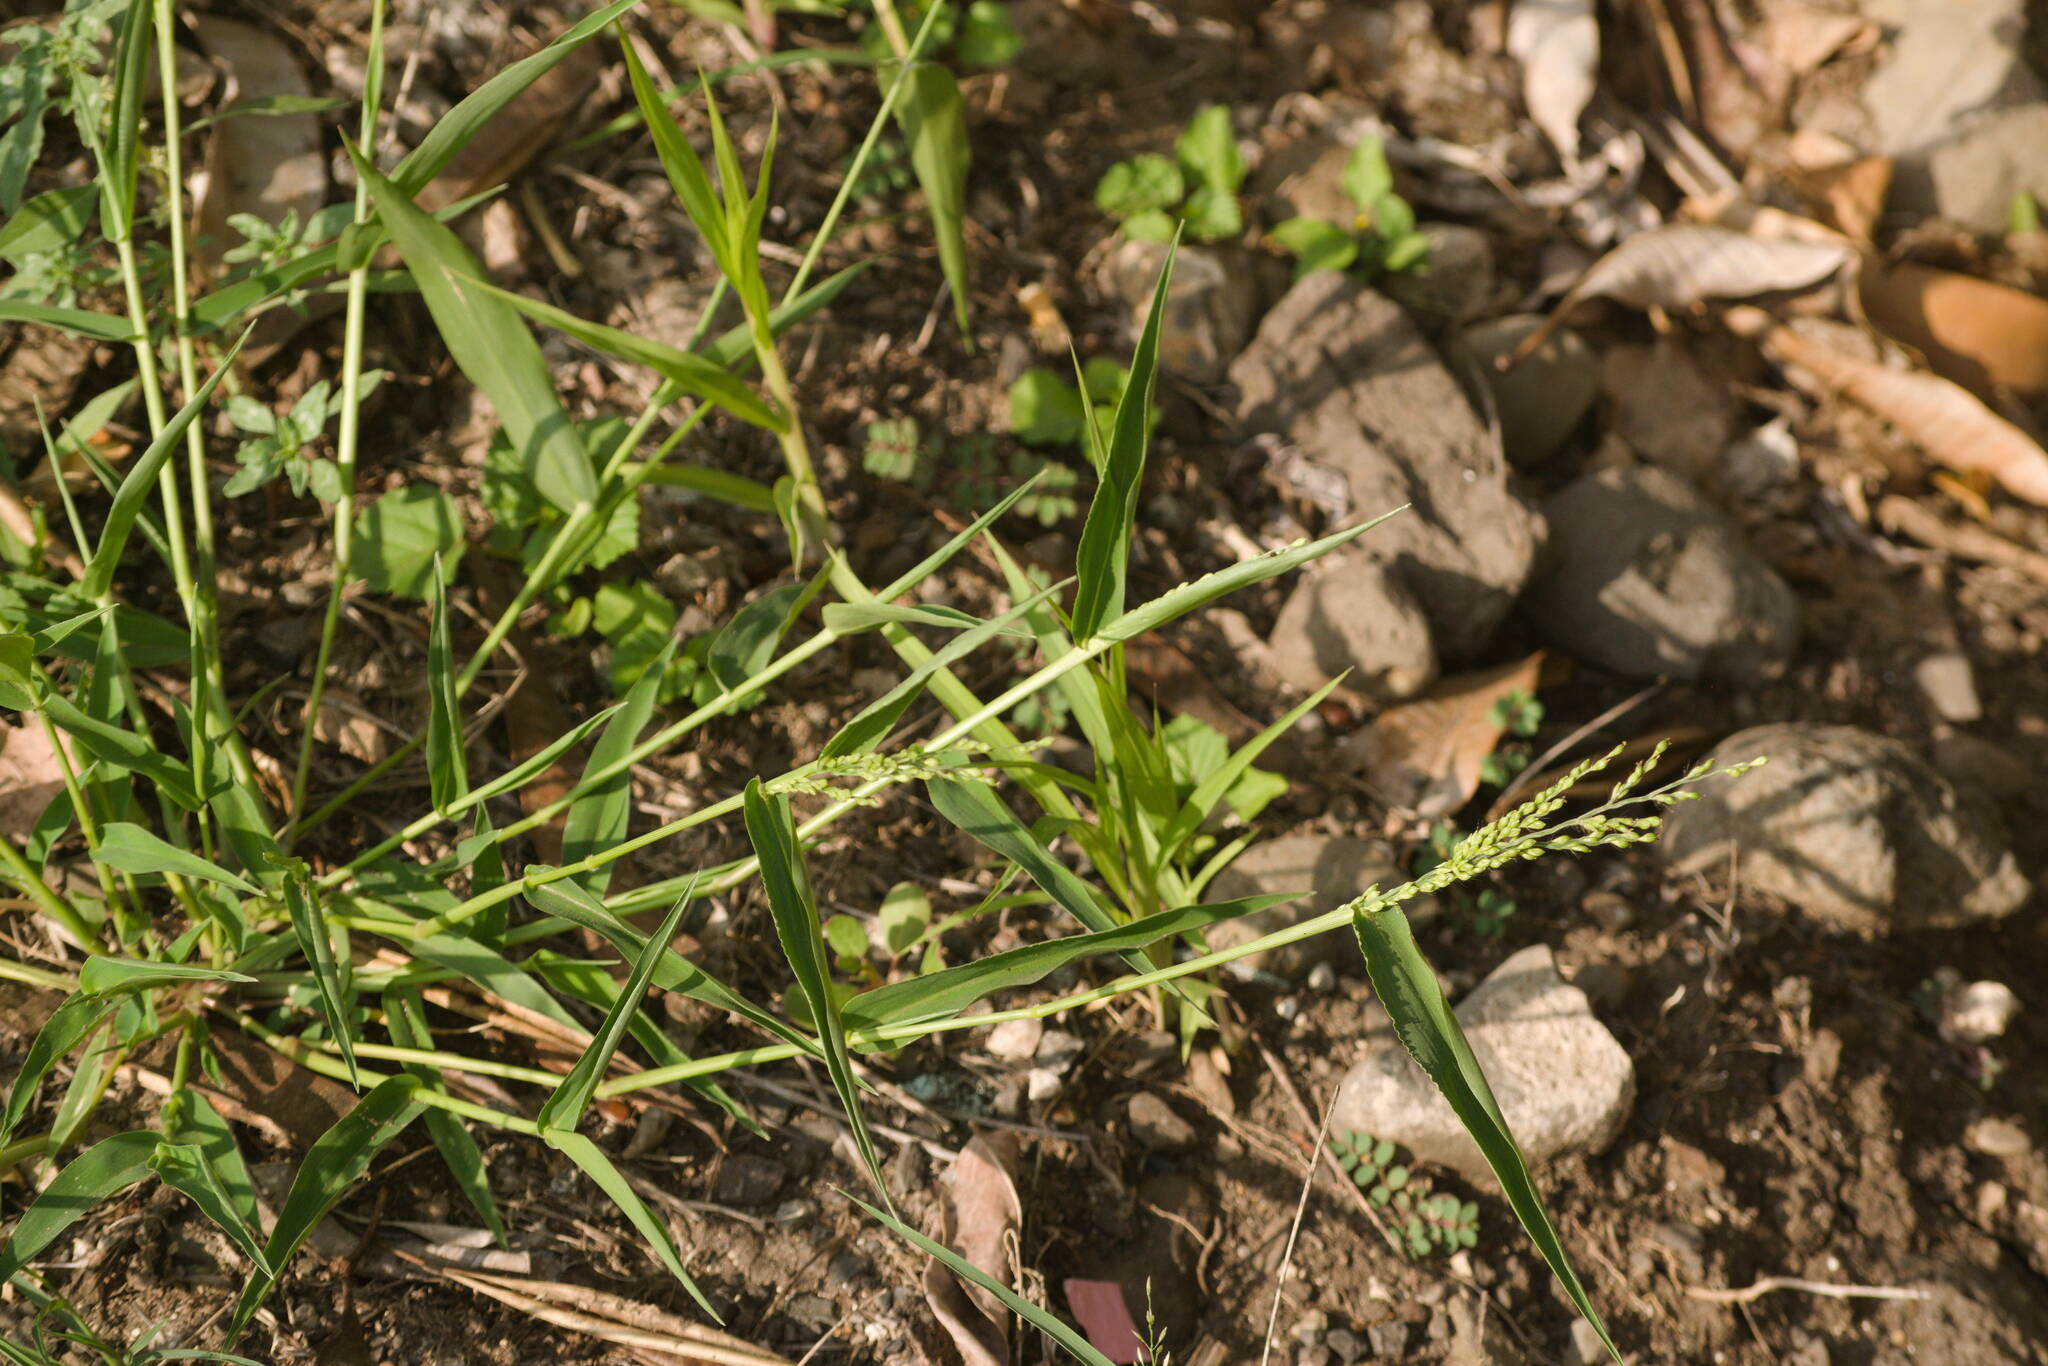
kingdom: Plantae
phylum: Tracheophyta
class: Liliopsida
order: Poales
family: Poaceae
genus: Urochloa
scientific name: Urochloa ramosa
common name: Browntop millet
